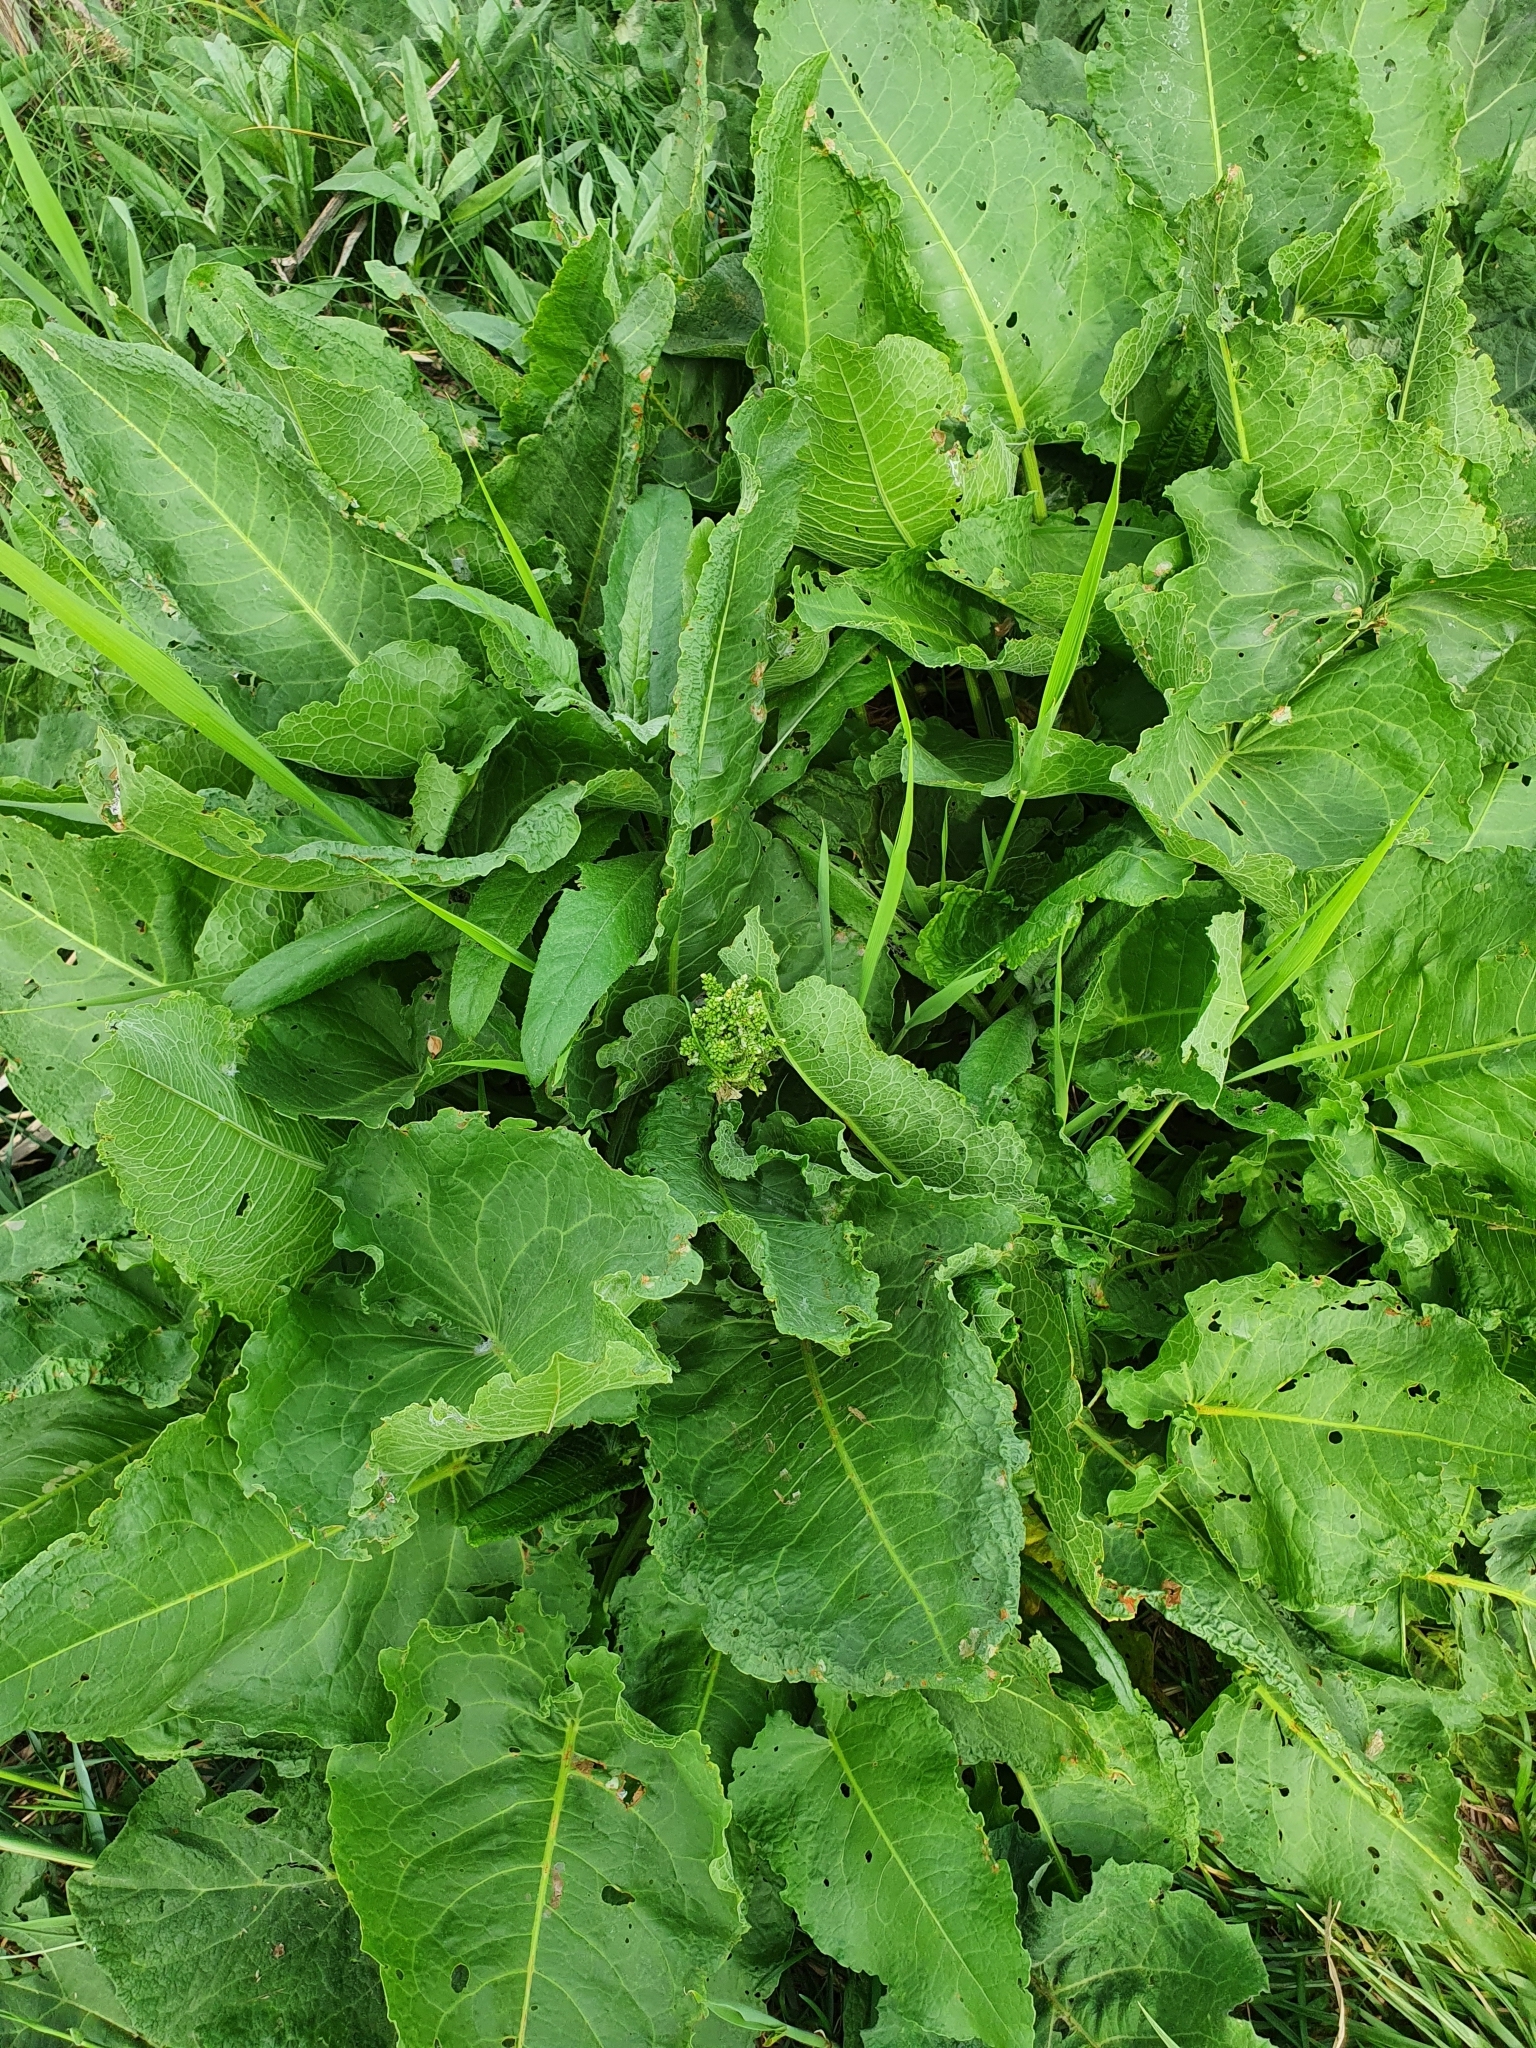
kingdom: Plantae
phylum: Tracheophyta
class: Magnoliopsida
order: Caryophyllales
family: Polygonaceae
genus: Rumex
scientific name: Rumex confertus
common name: Russian dock
